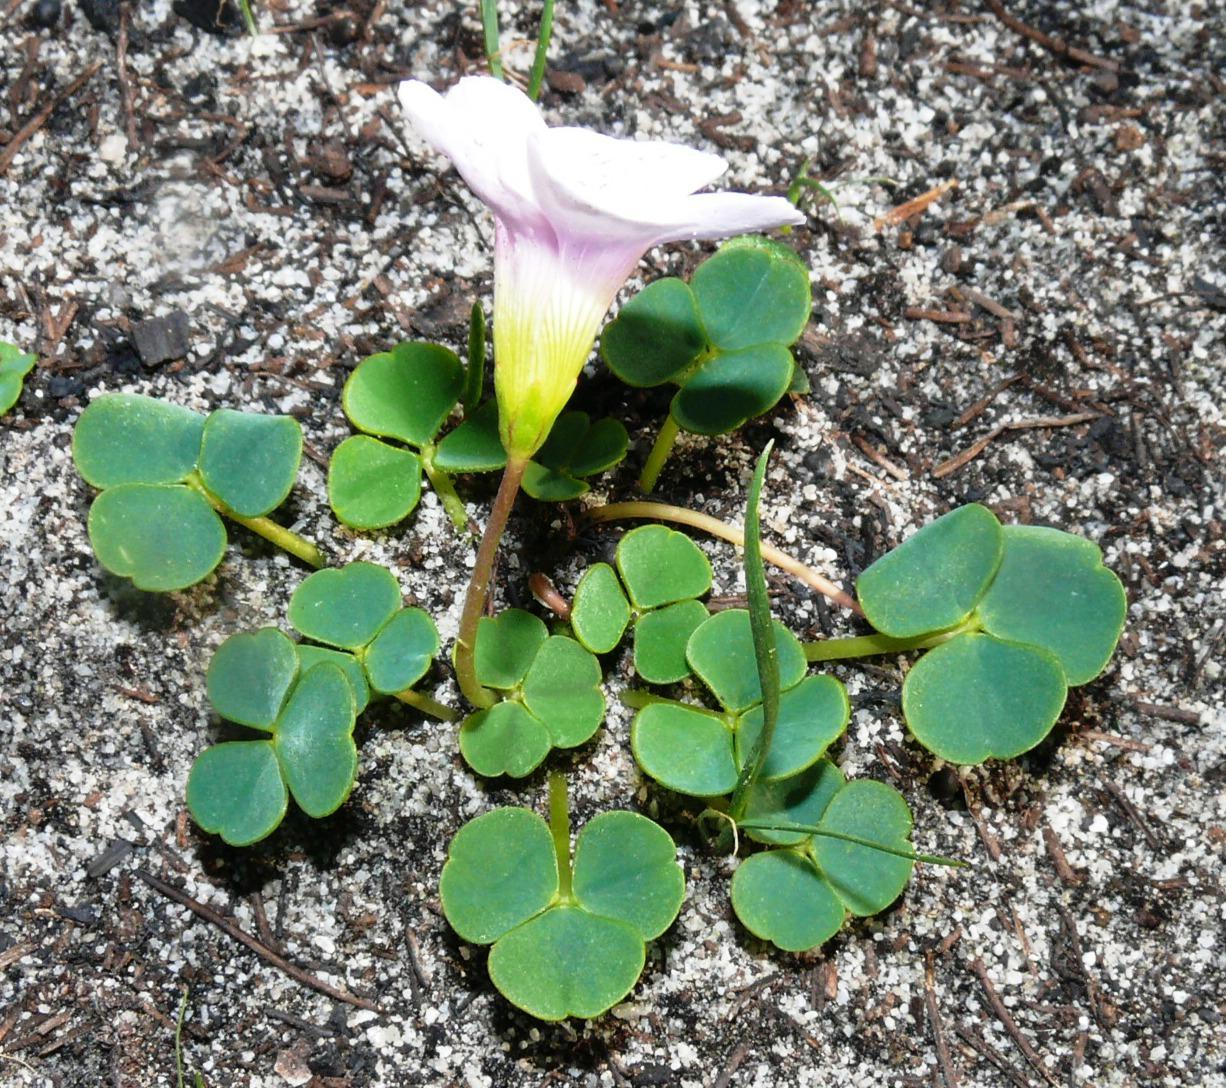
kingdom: Plantae
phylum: Tracheophyta
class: Magnoliopsida
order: Oxalidales
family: Oxalidaceae
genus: Oxalis
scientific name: Oxalis commutata
